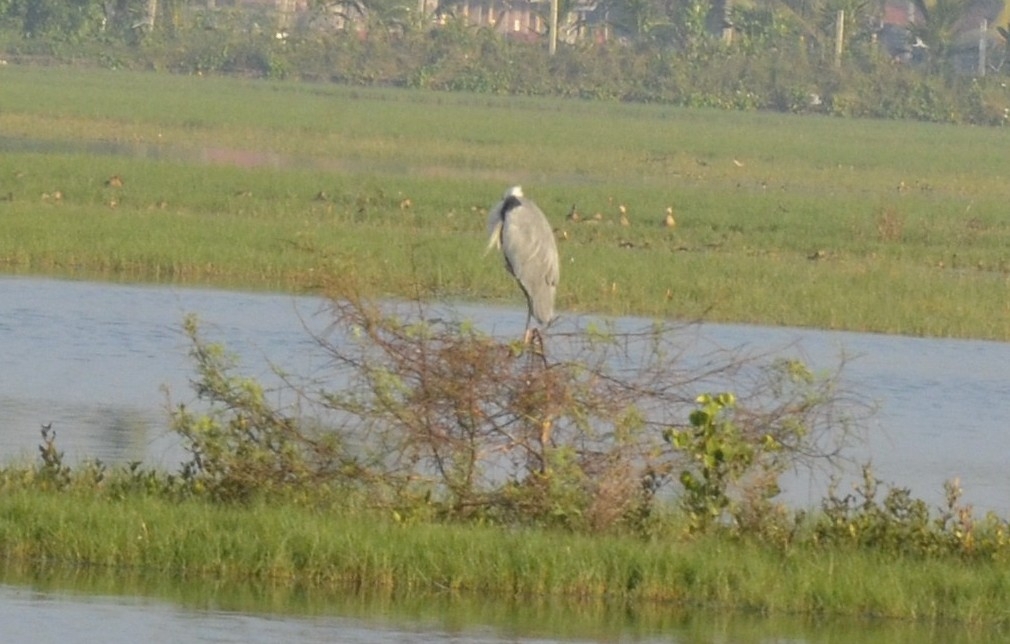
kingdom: Animalia
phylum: Chordata
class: Aves
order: Pelecaniformes
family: Ardeidae
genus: Ardea
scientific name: Ardea cinerea
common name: Grey heron
